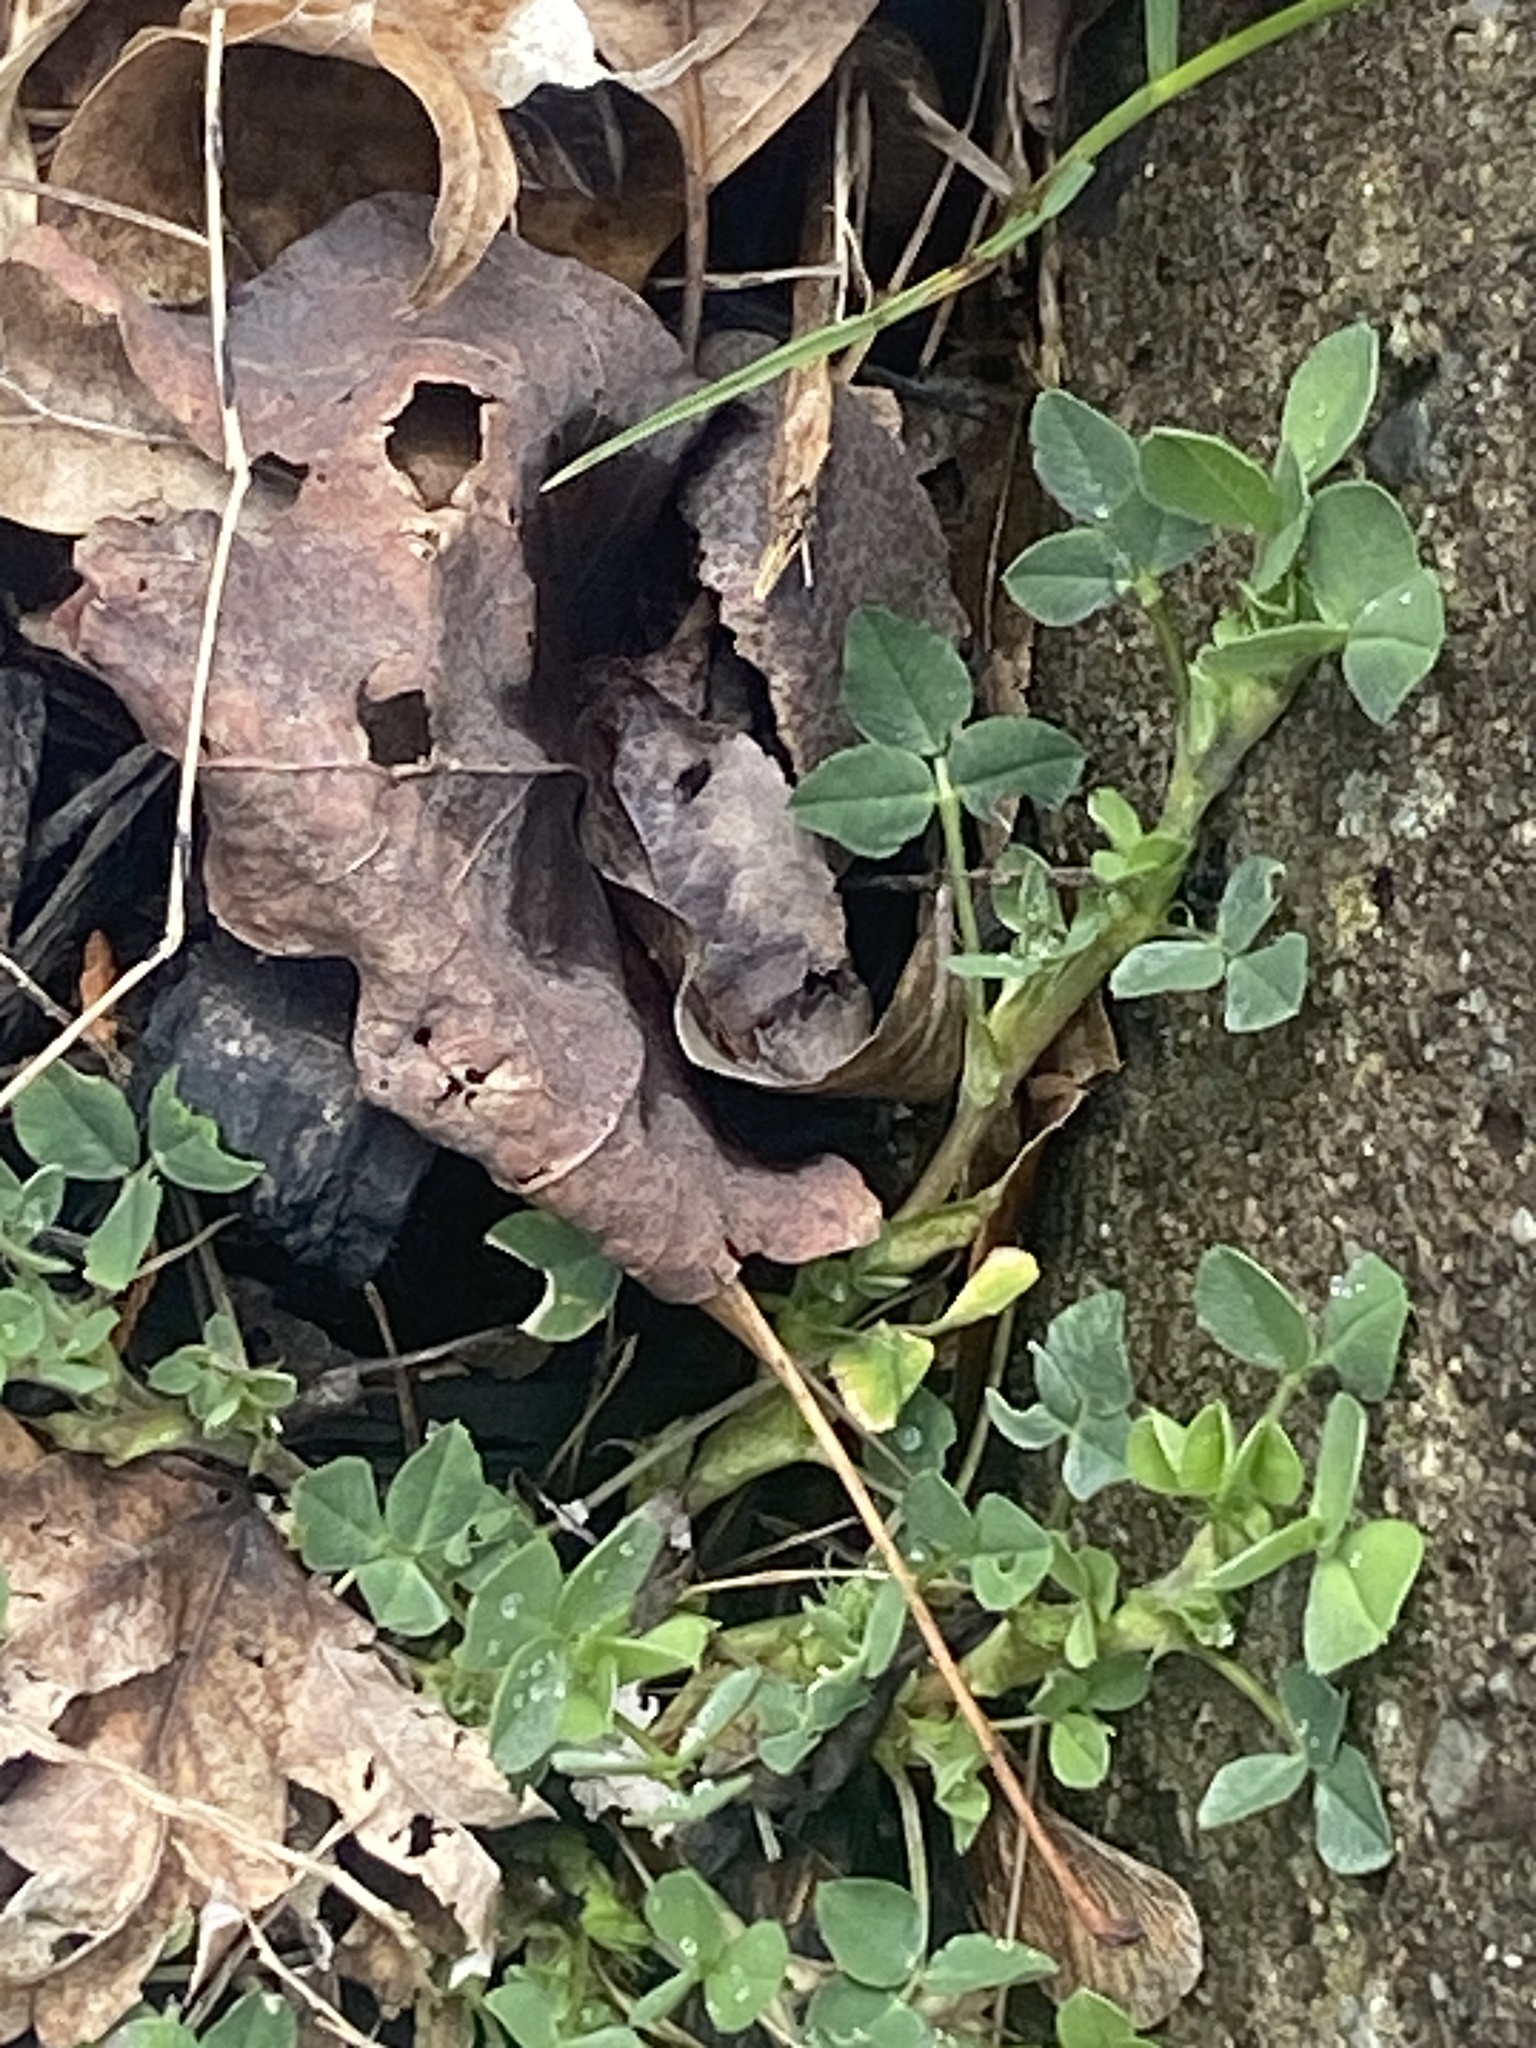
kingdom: Plantae
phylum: Tracheophyta
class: Magnoliopsida
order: Fabales
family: Fabaceae
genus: Medicago
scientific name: Medicago lupulina
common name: Black medick
